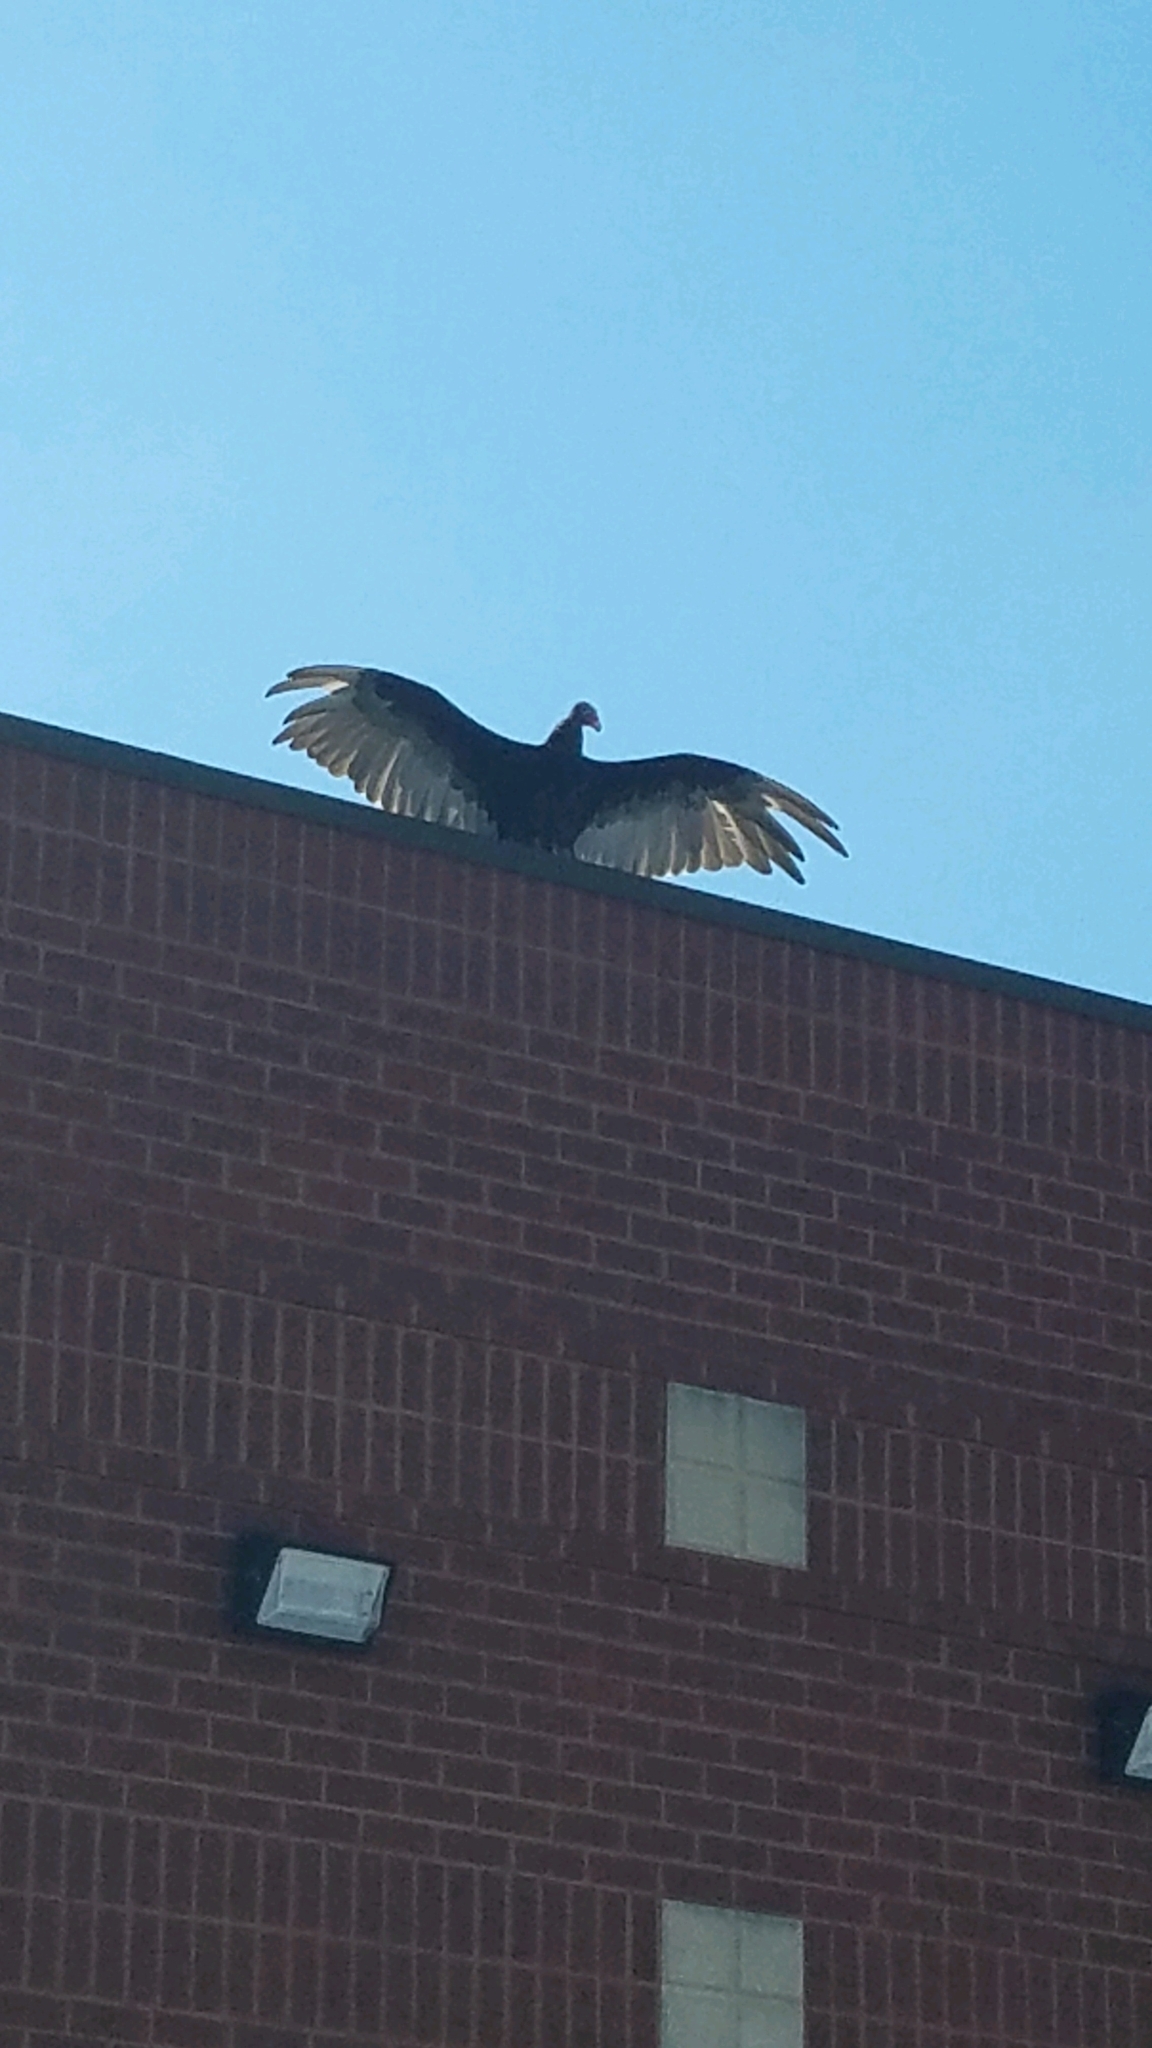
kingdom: Animalia
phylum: Chordata
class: Aves
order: Accipitriformes
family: Cathartidae
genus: Cathartes
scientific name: Cathartes aura
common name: Turkey vulture
